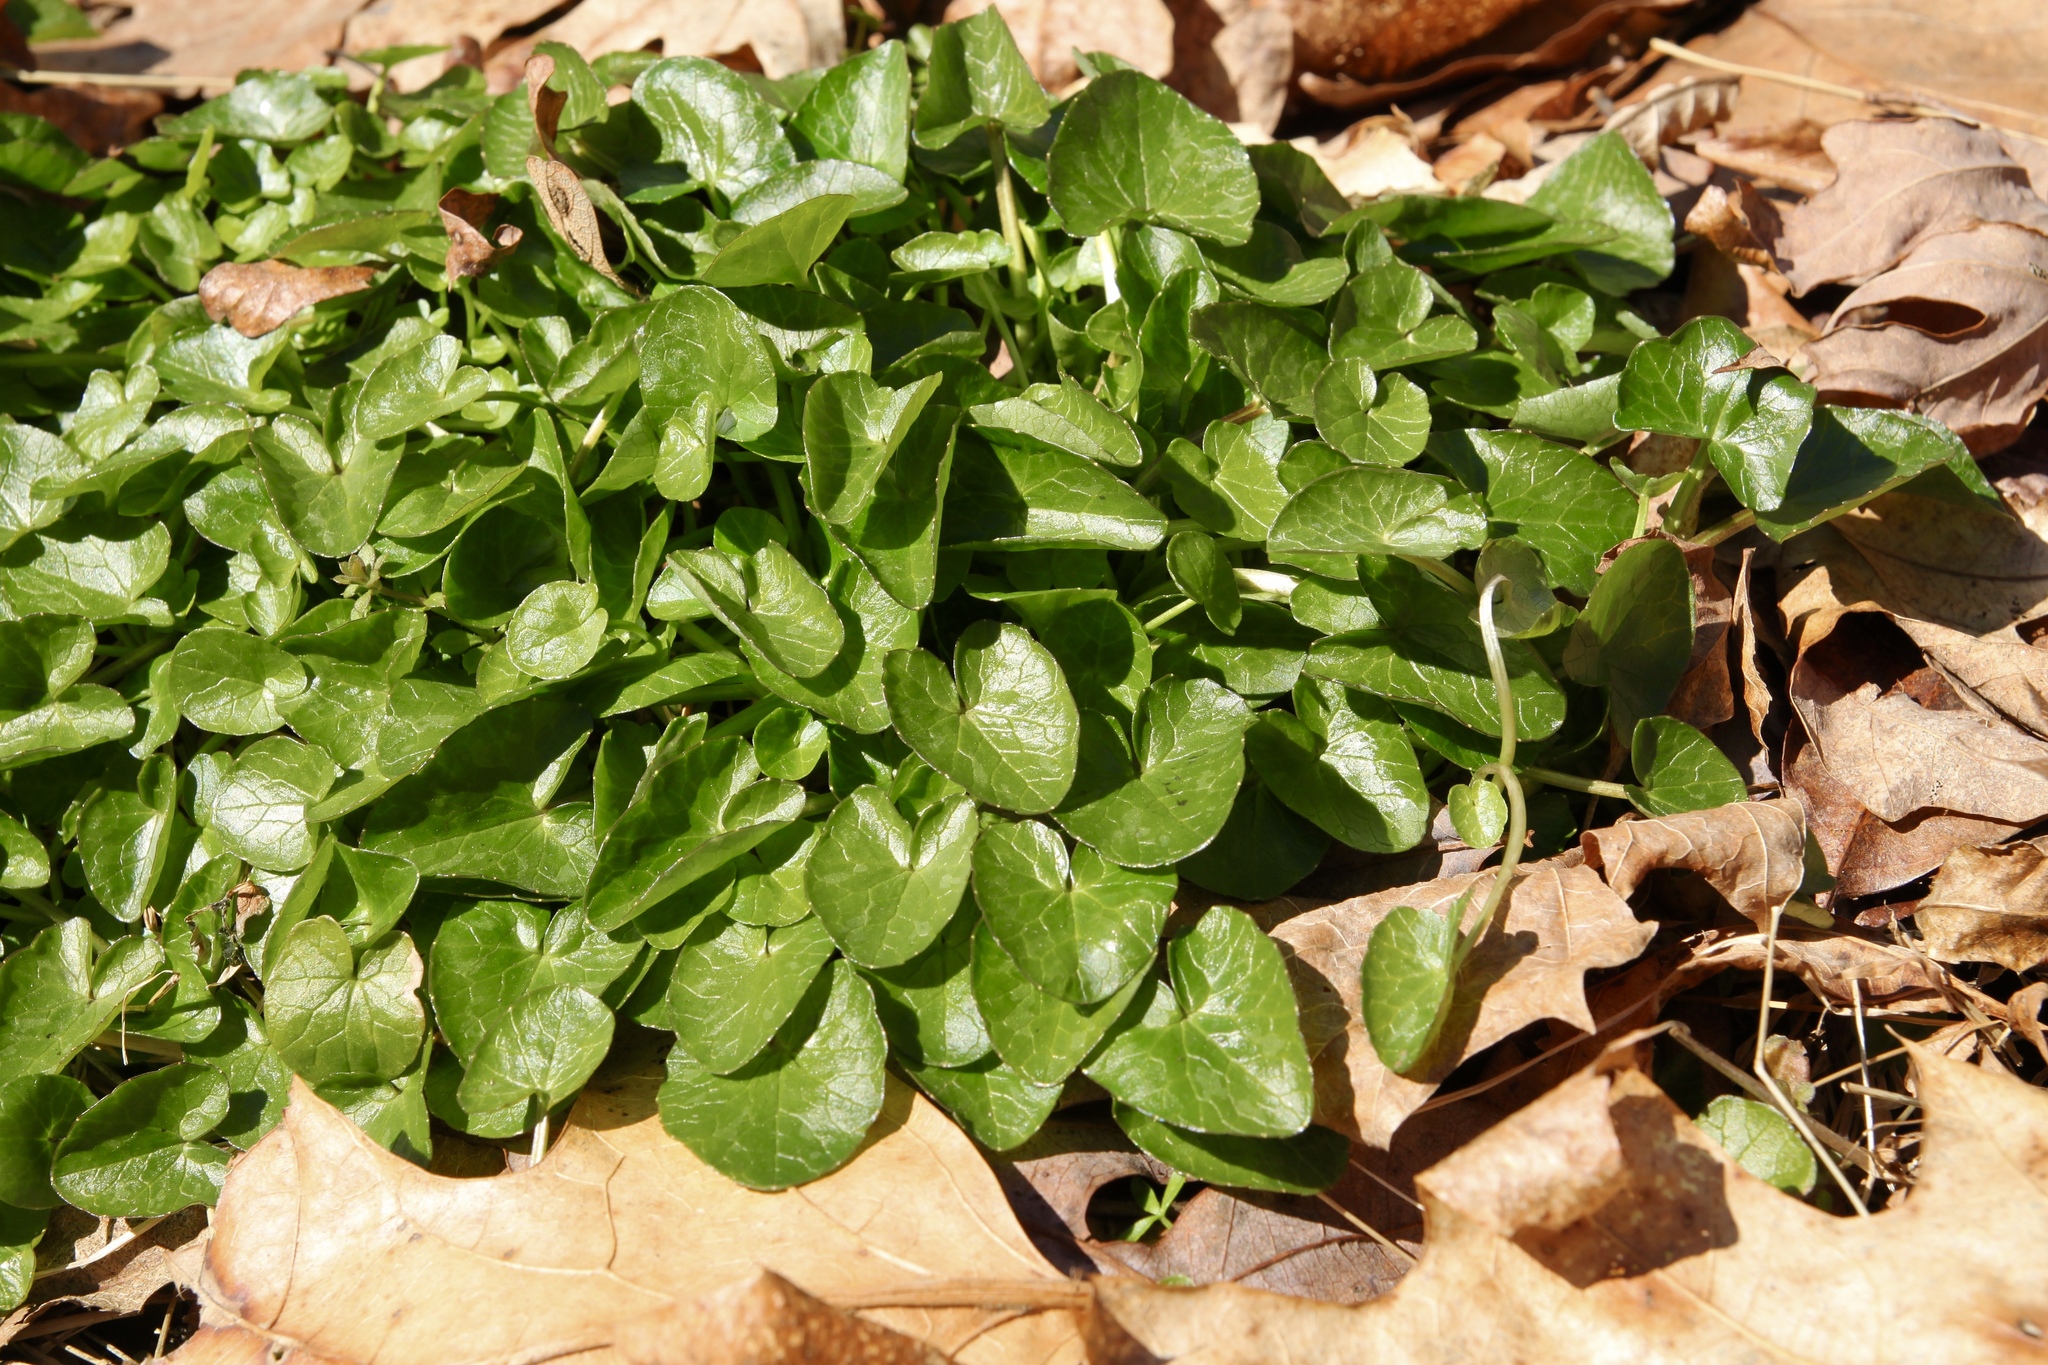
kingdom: Plantae
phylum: Tracheophyta
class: Magnoliopsida
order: Ranunculales
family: Ranunculaceae
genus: Ficaria
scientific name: Ficaria verna
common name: Lesser celandine
